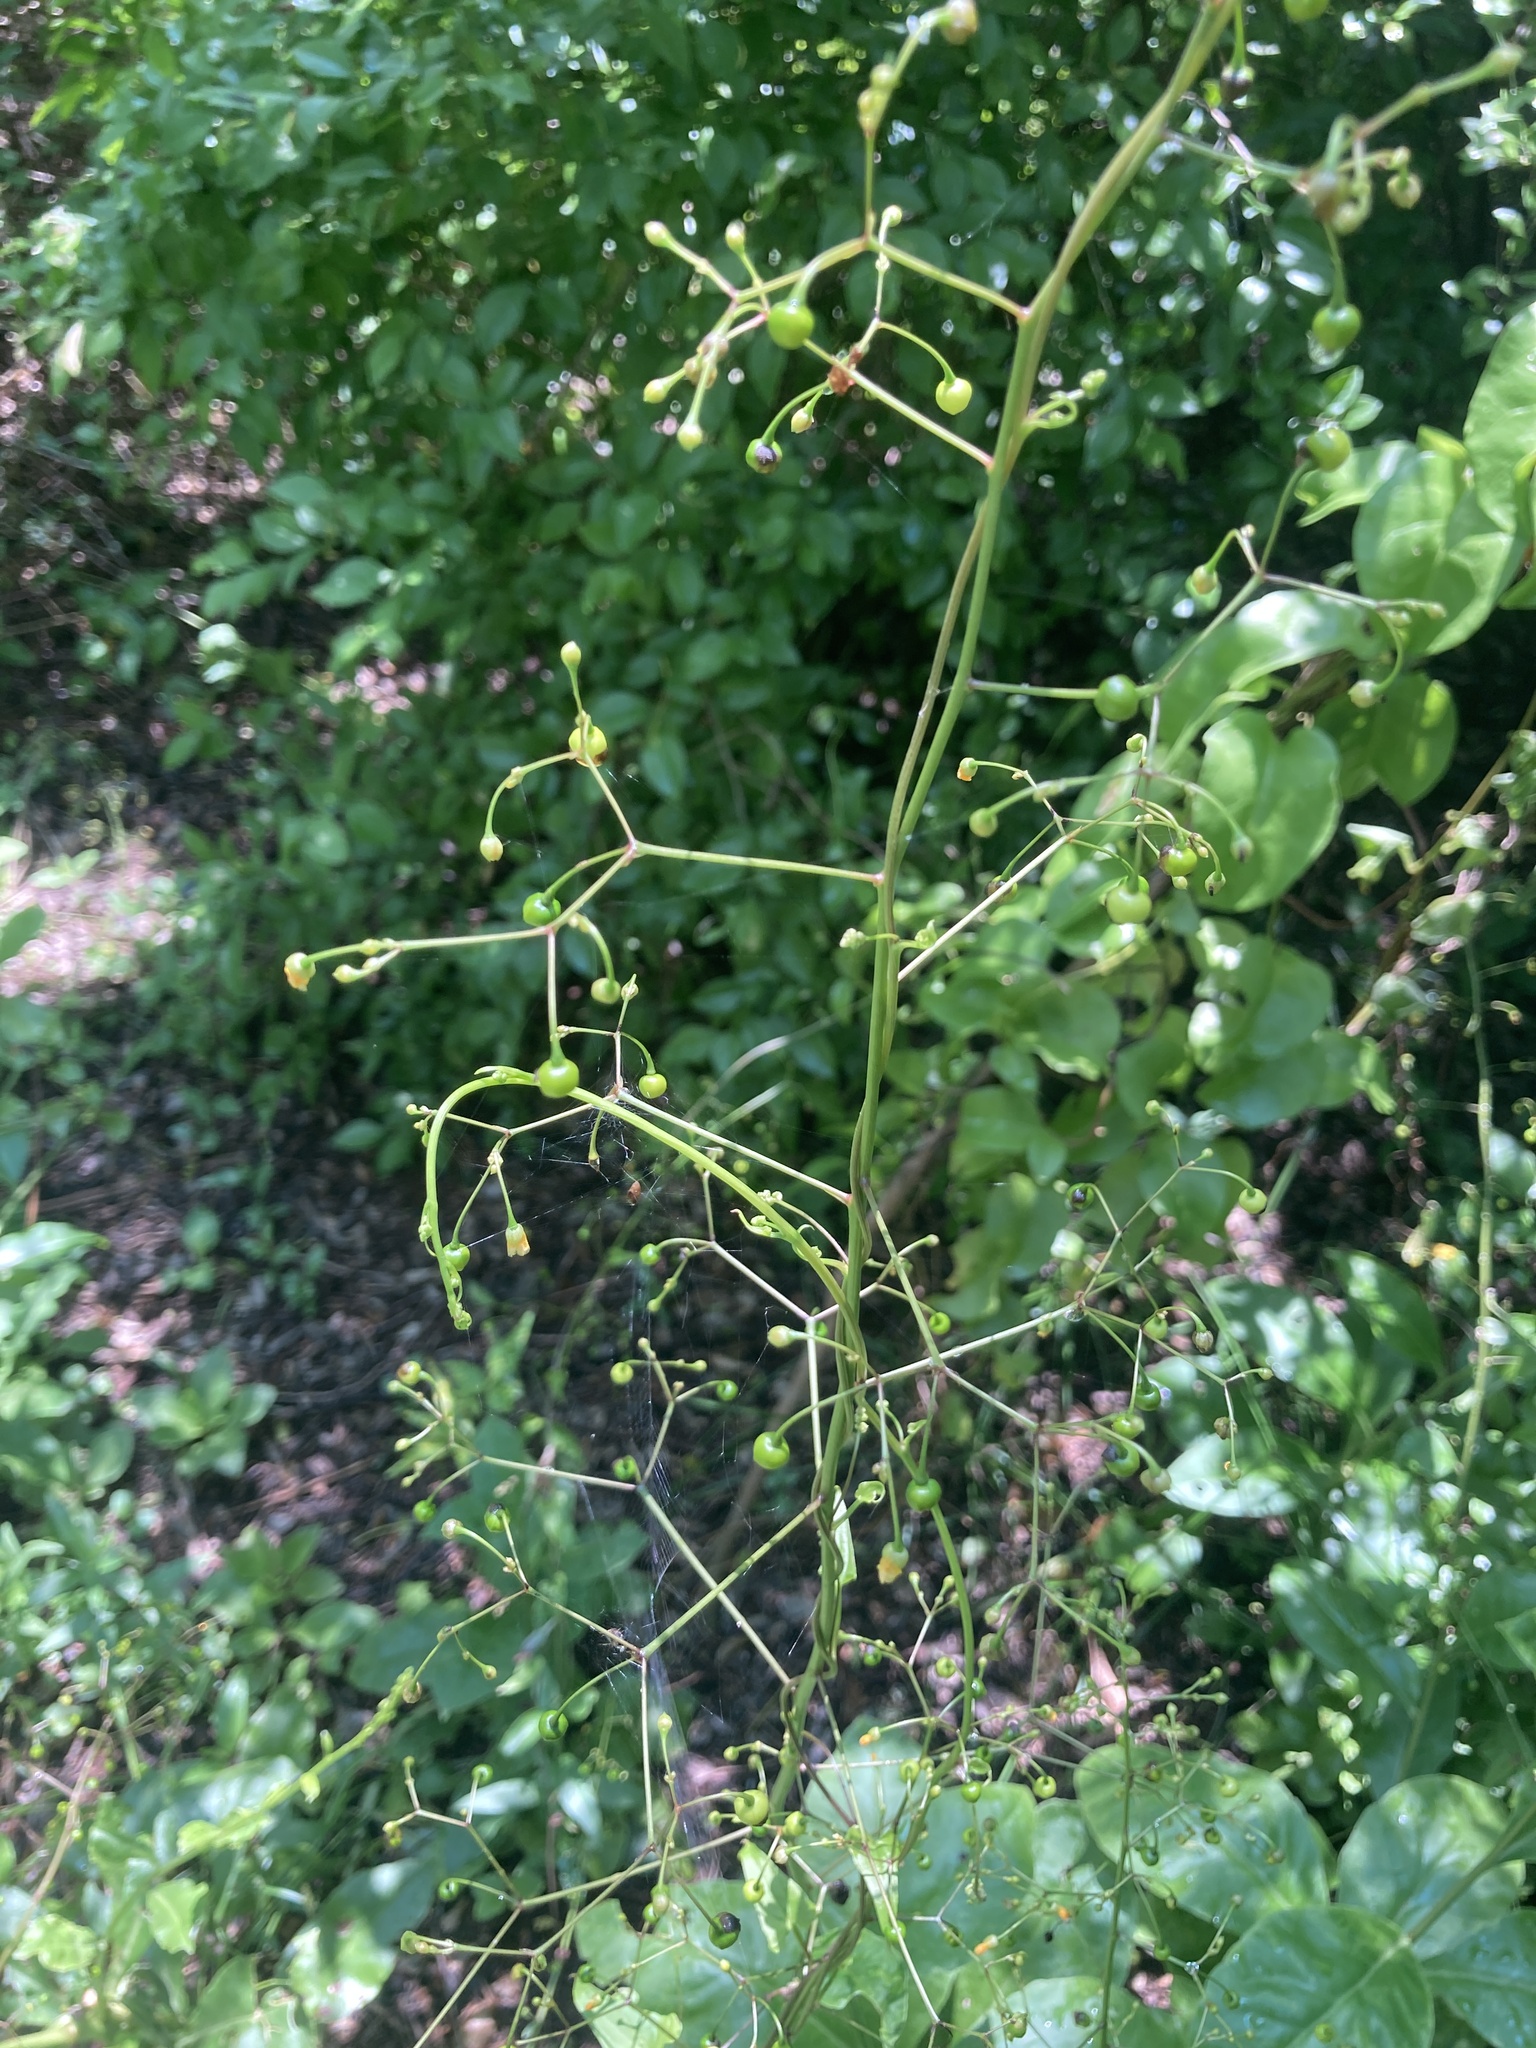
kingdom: Plantae
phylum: Tracheophyta
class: Magnoliopsida
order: Caryophyllales
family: Talinaceae
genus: Talinum
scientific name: Talinum paniculatum
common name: Jewels of opar
